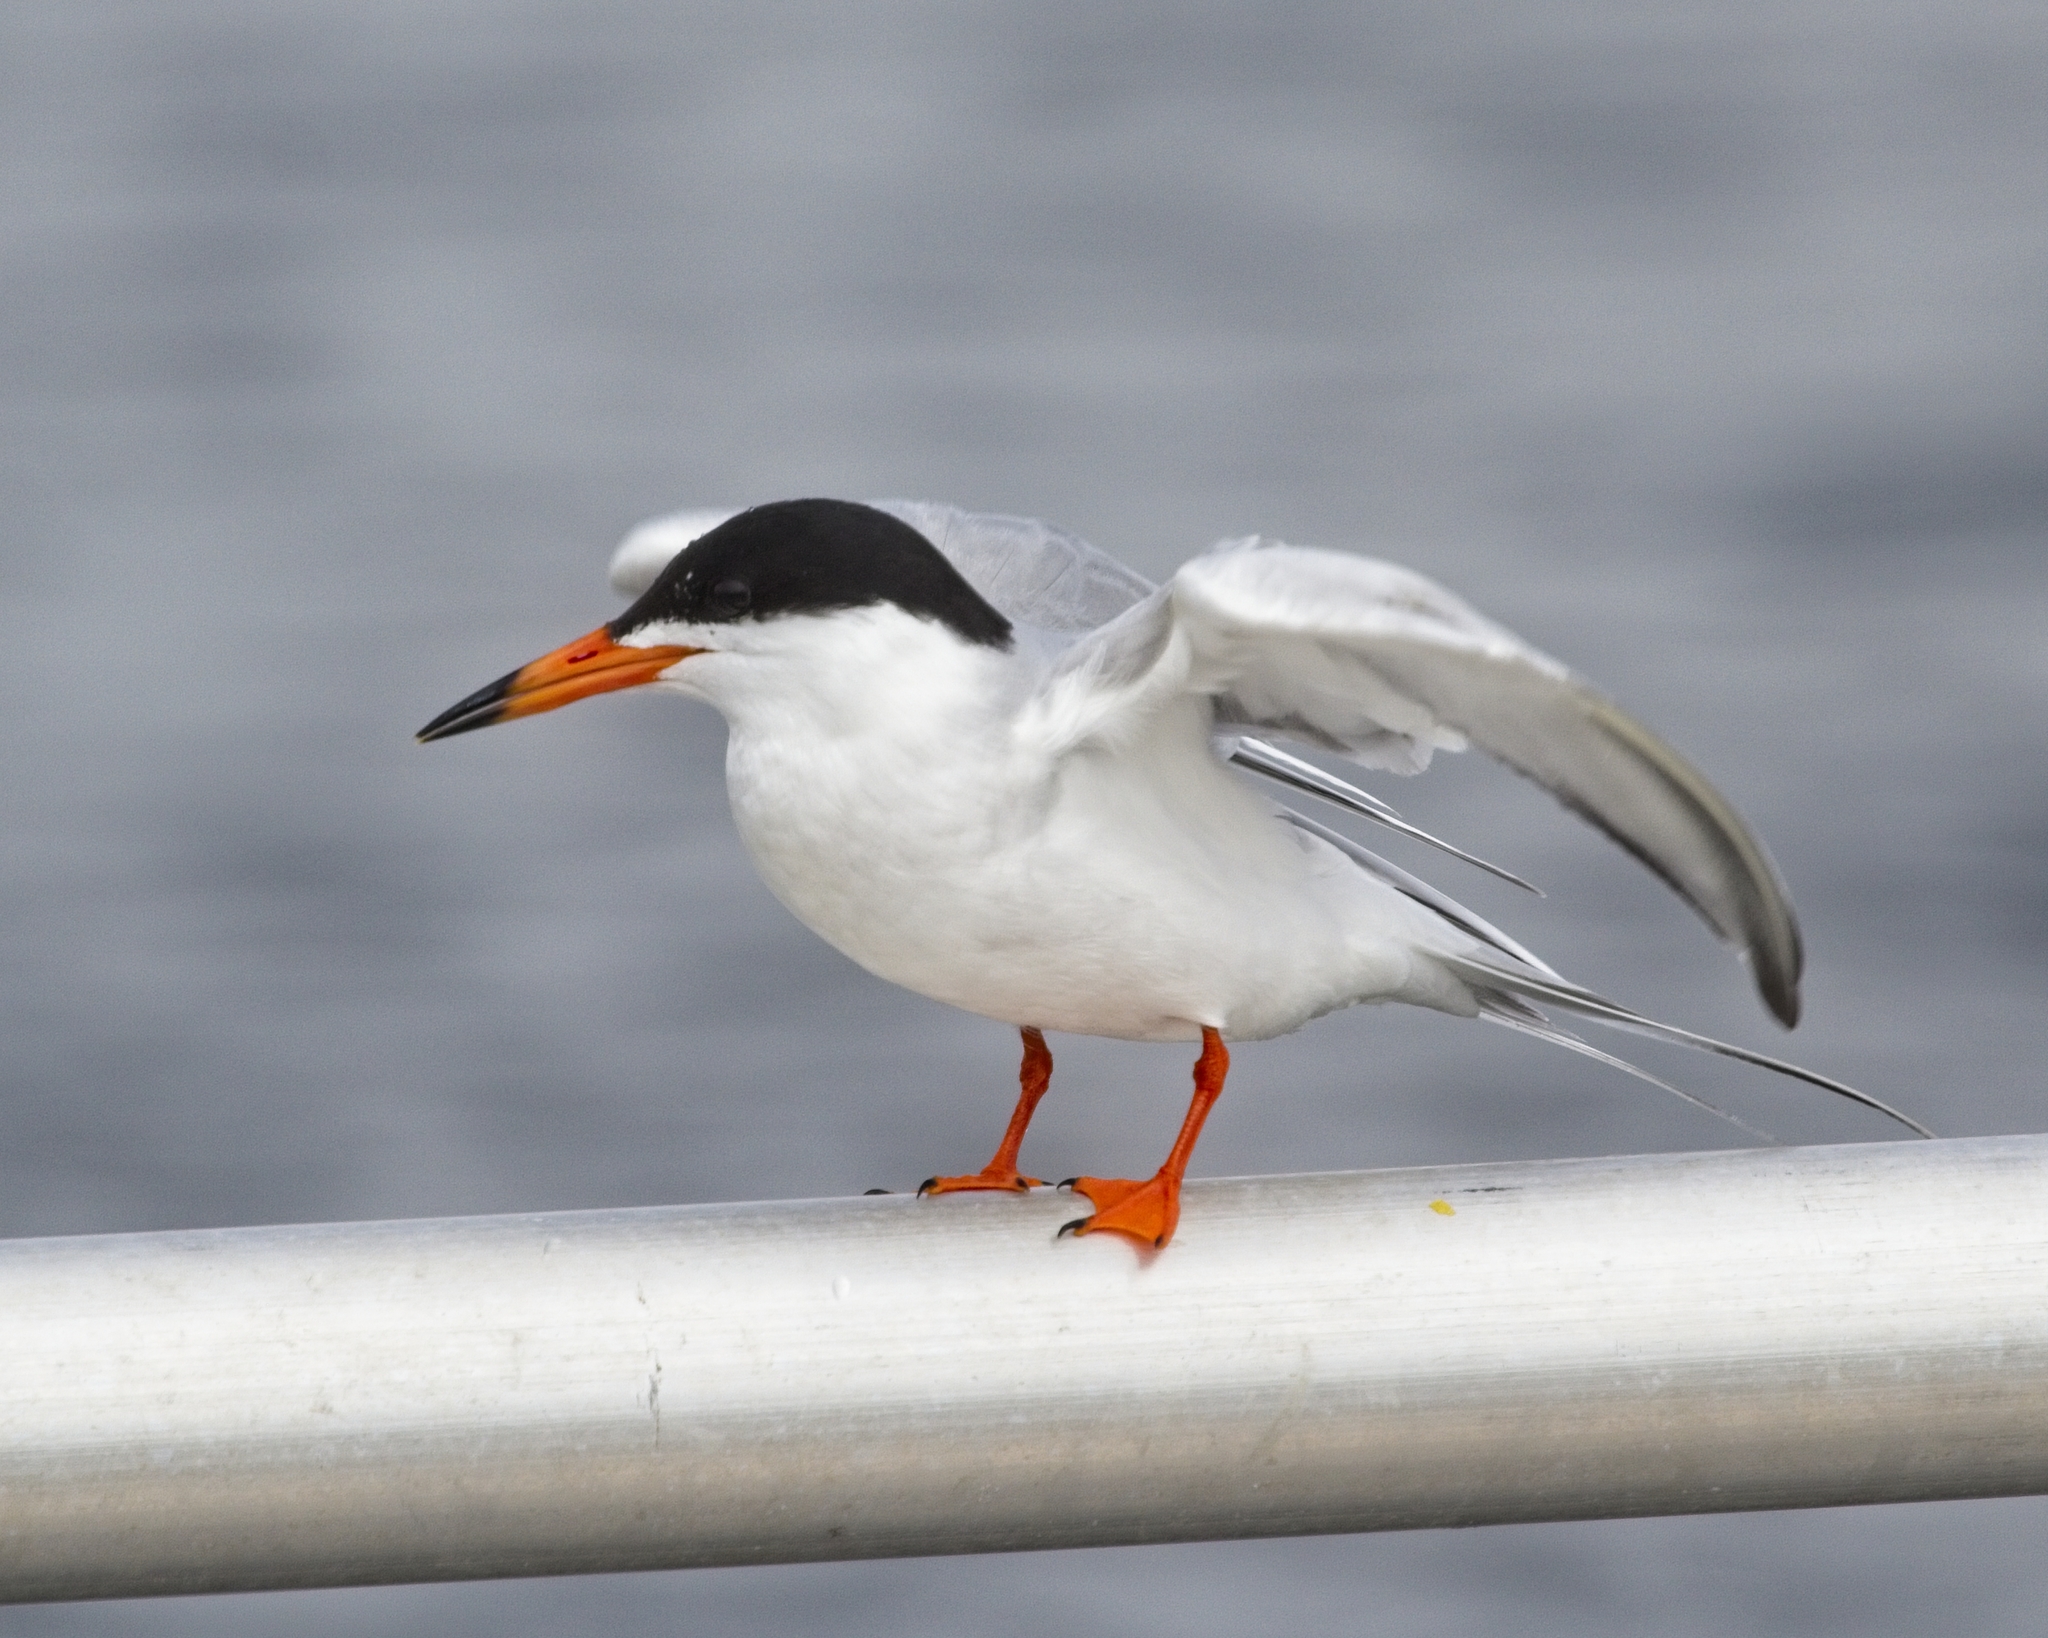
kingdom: Animalia
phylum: Chordata
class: Aves
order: Charadriiformes
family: Laridae
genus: Sterna
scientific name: Sterna forsteri
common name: Forster's tern
